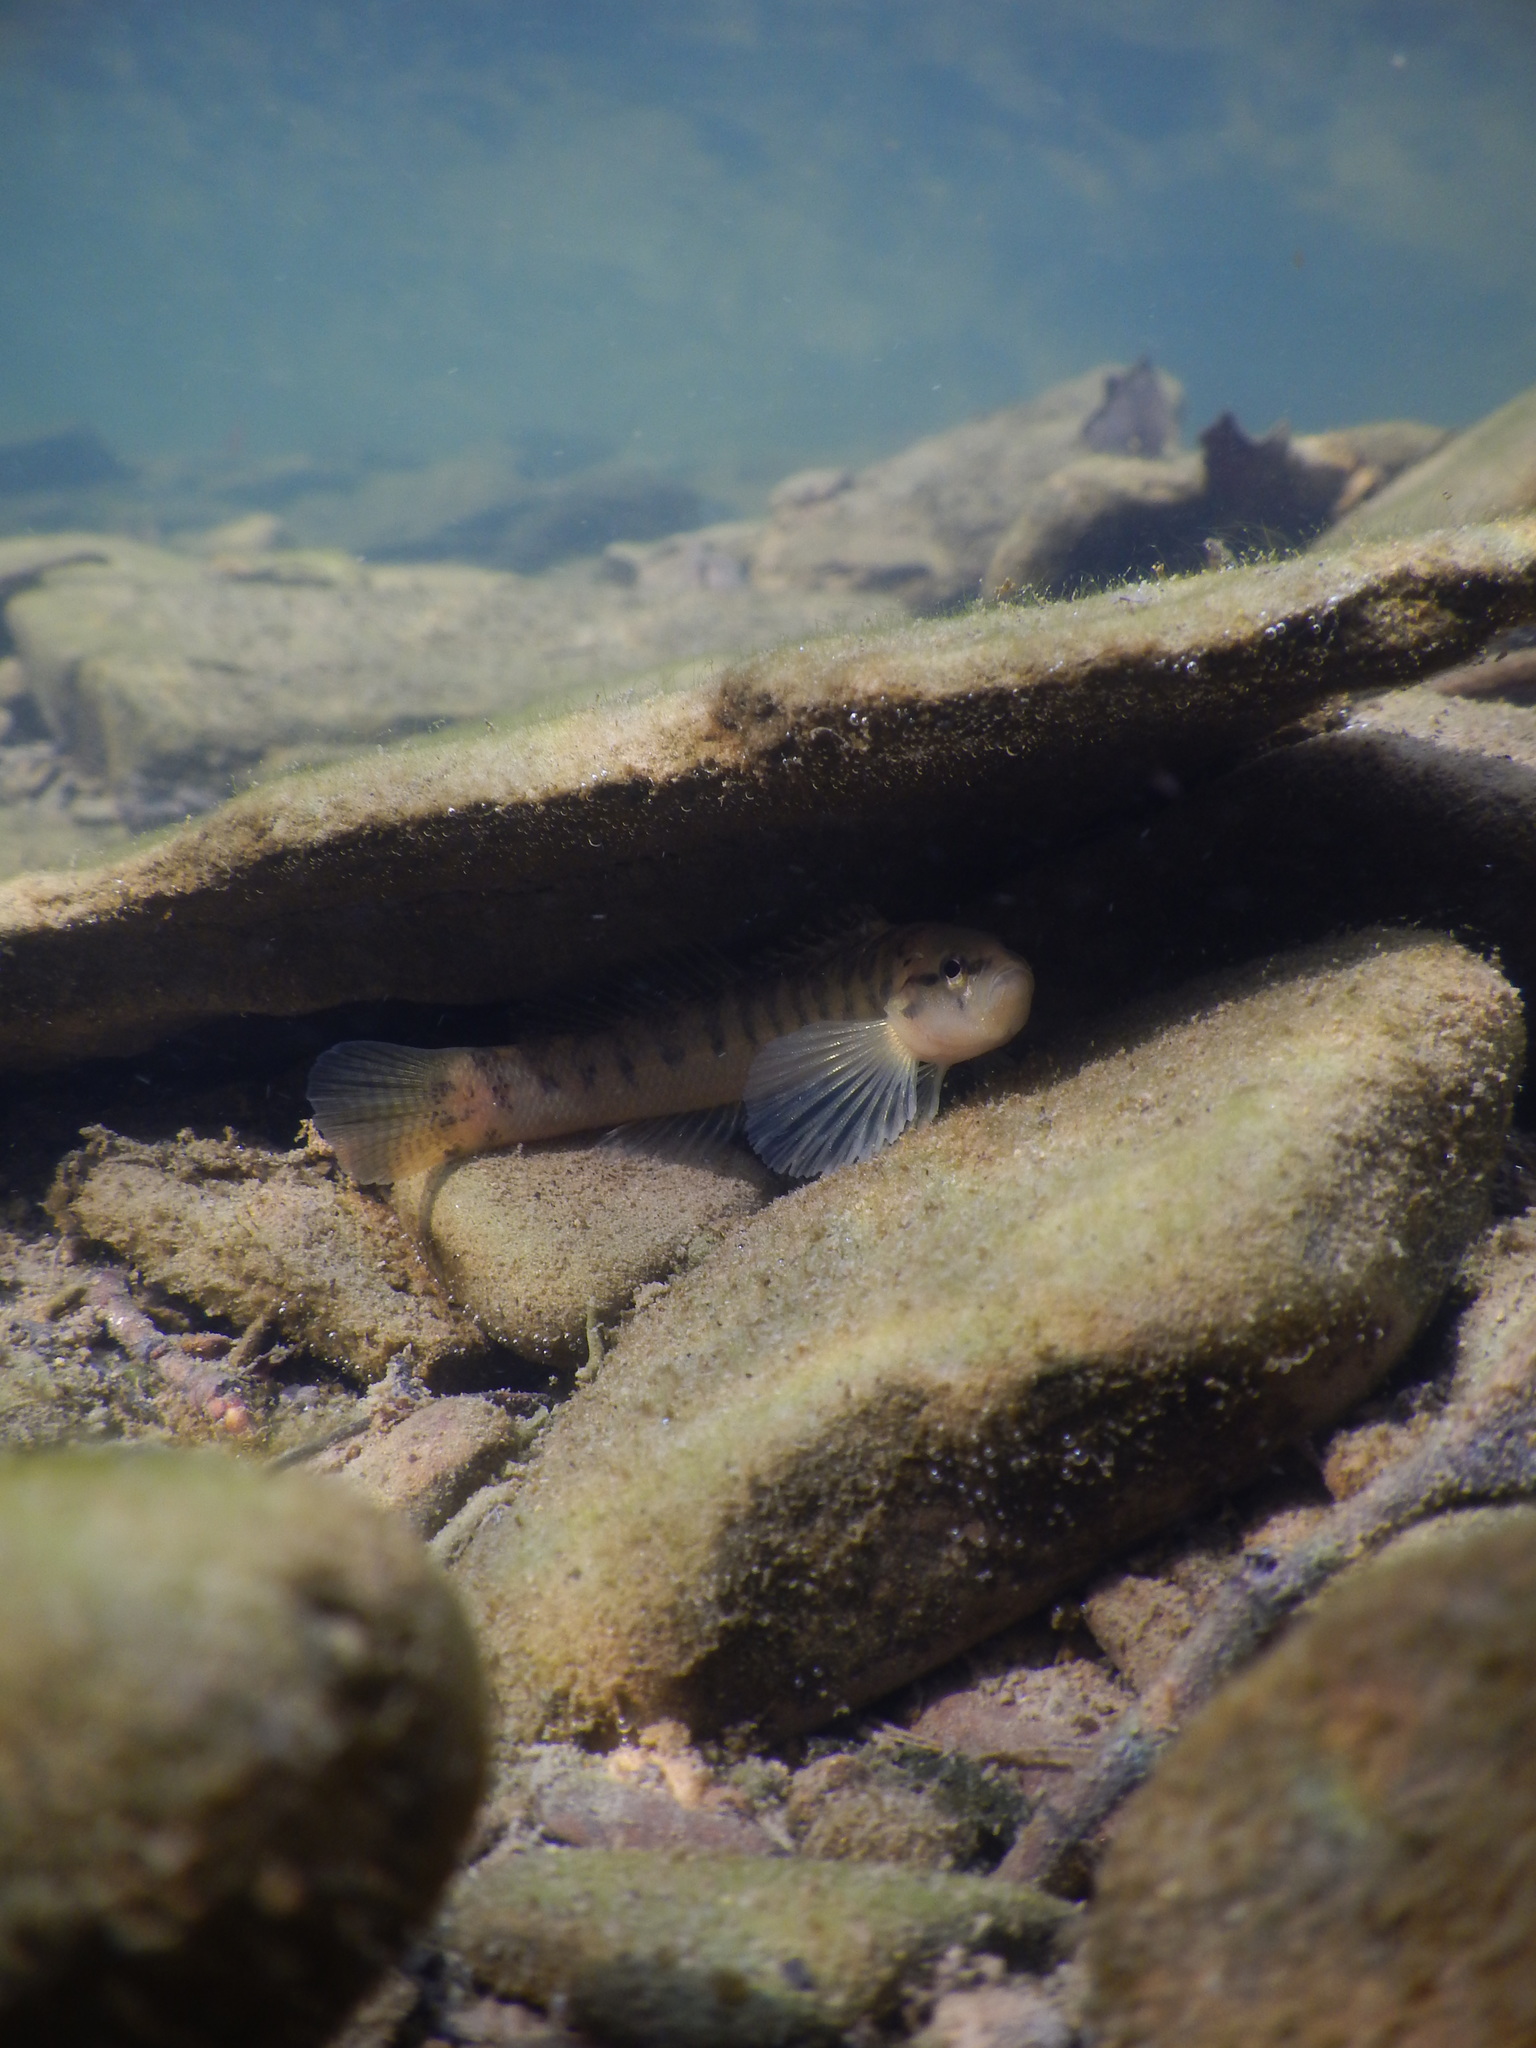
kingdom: Animalia
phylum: Chordata
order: Perciformes
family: Percidae
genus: Etheostoma
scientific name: Etheostoma flabellare
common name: Fantail darter
